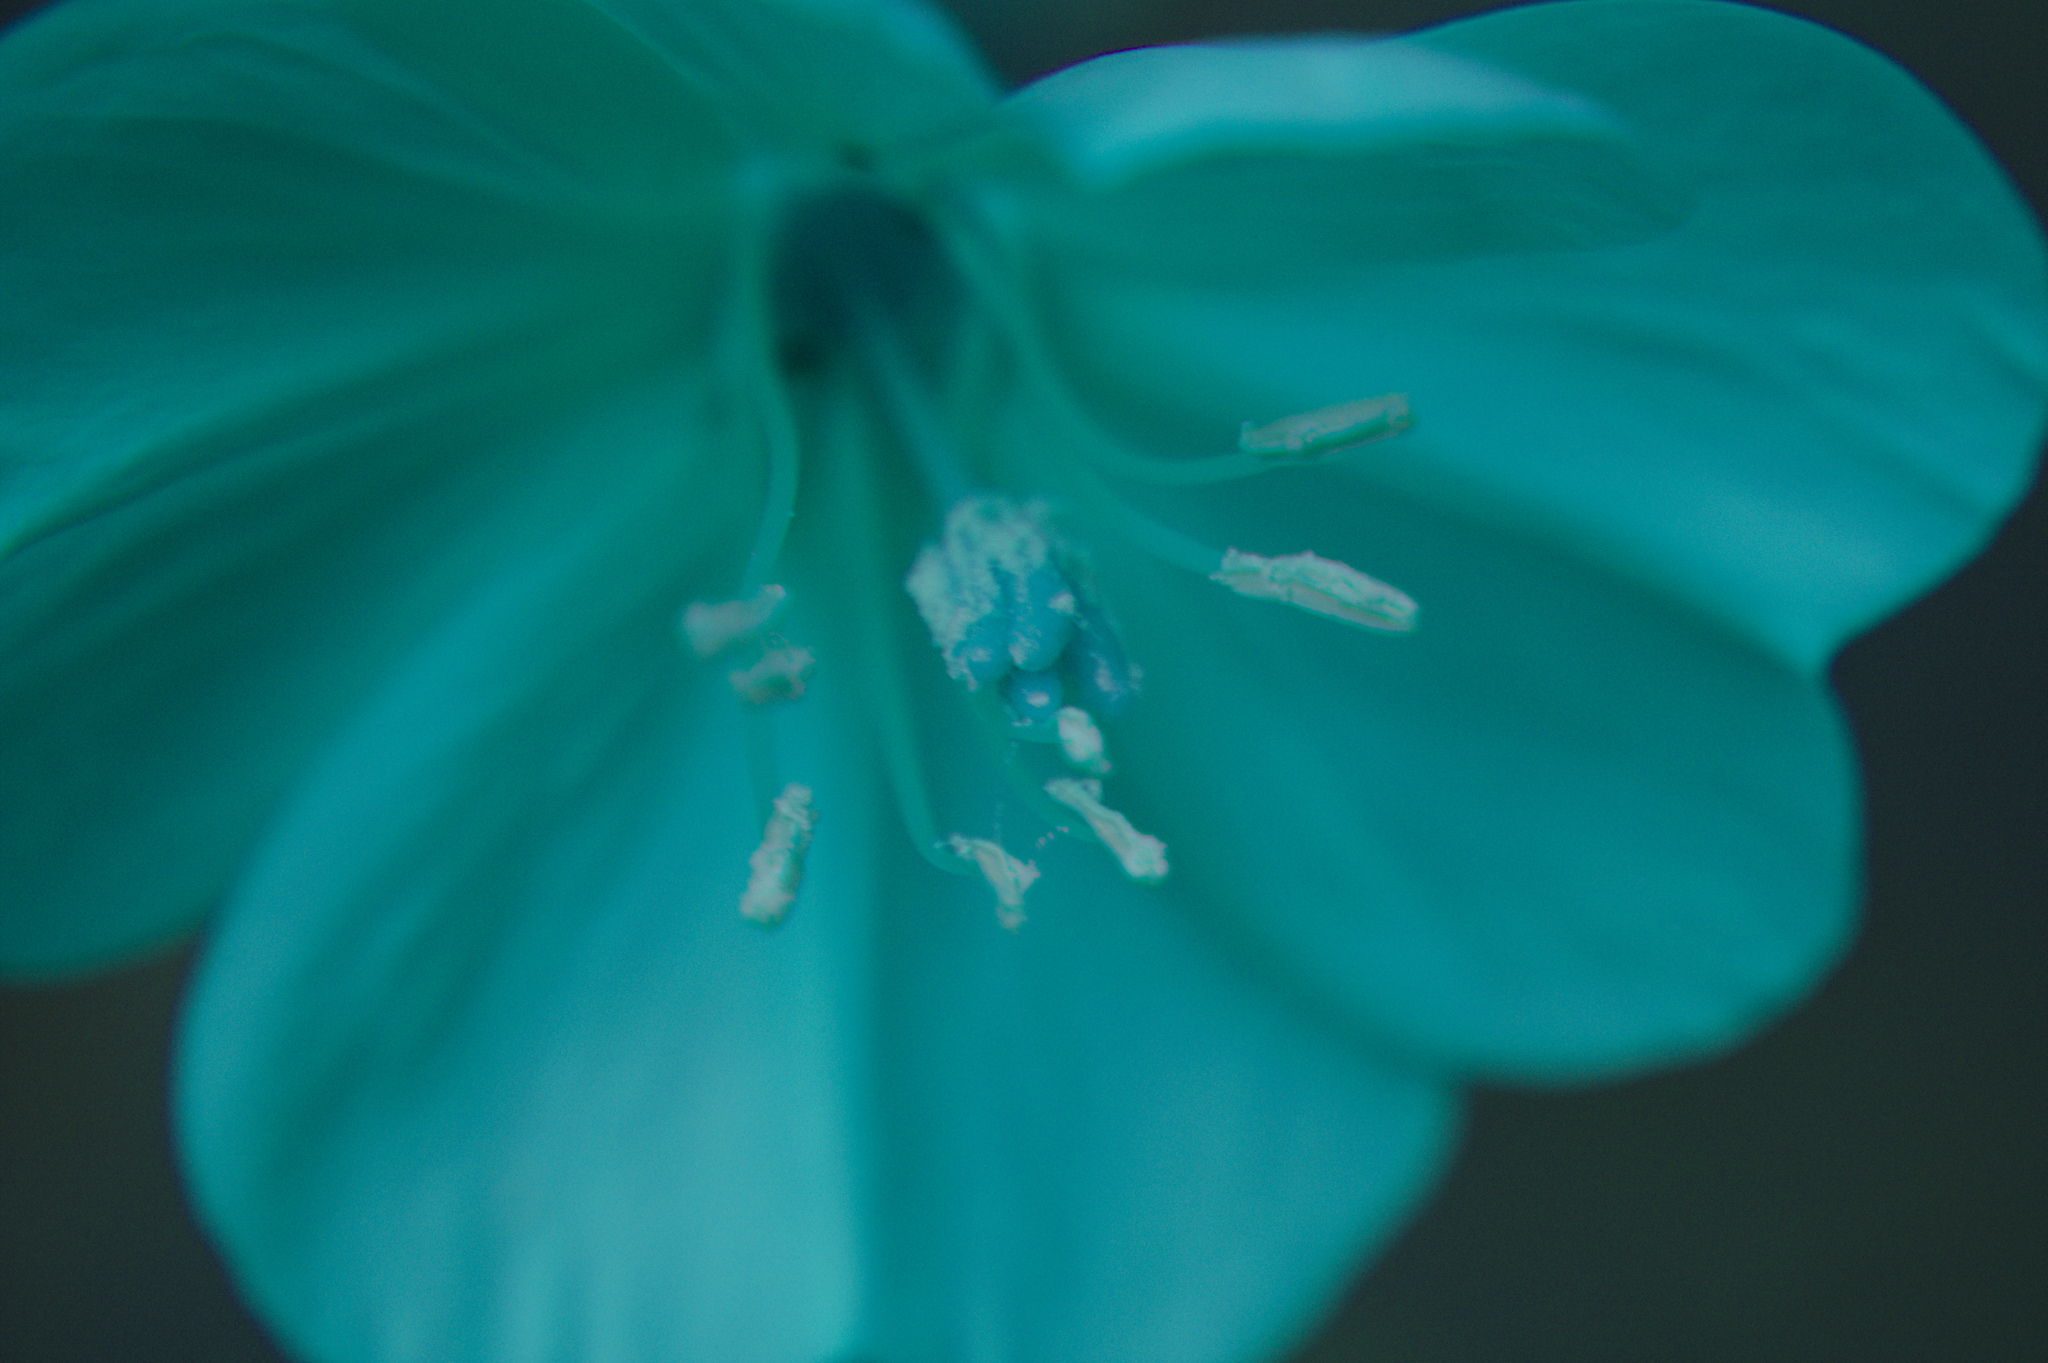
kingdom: Plantae
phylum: Tracheophyta
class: Magnoliopsida
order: Myrtales
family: Onagraceae
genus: Oenothera
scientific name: Oenothera parviflora
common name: Least evening-primrose
